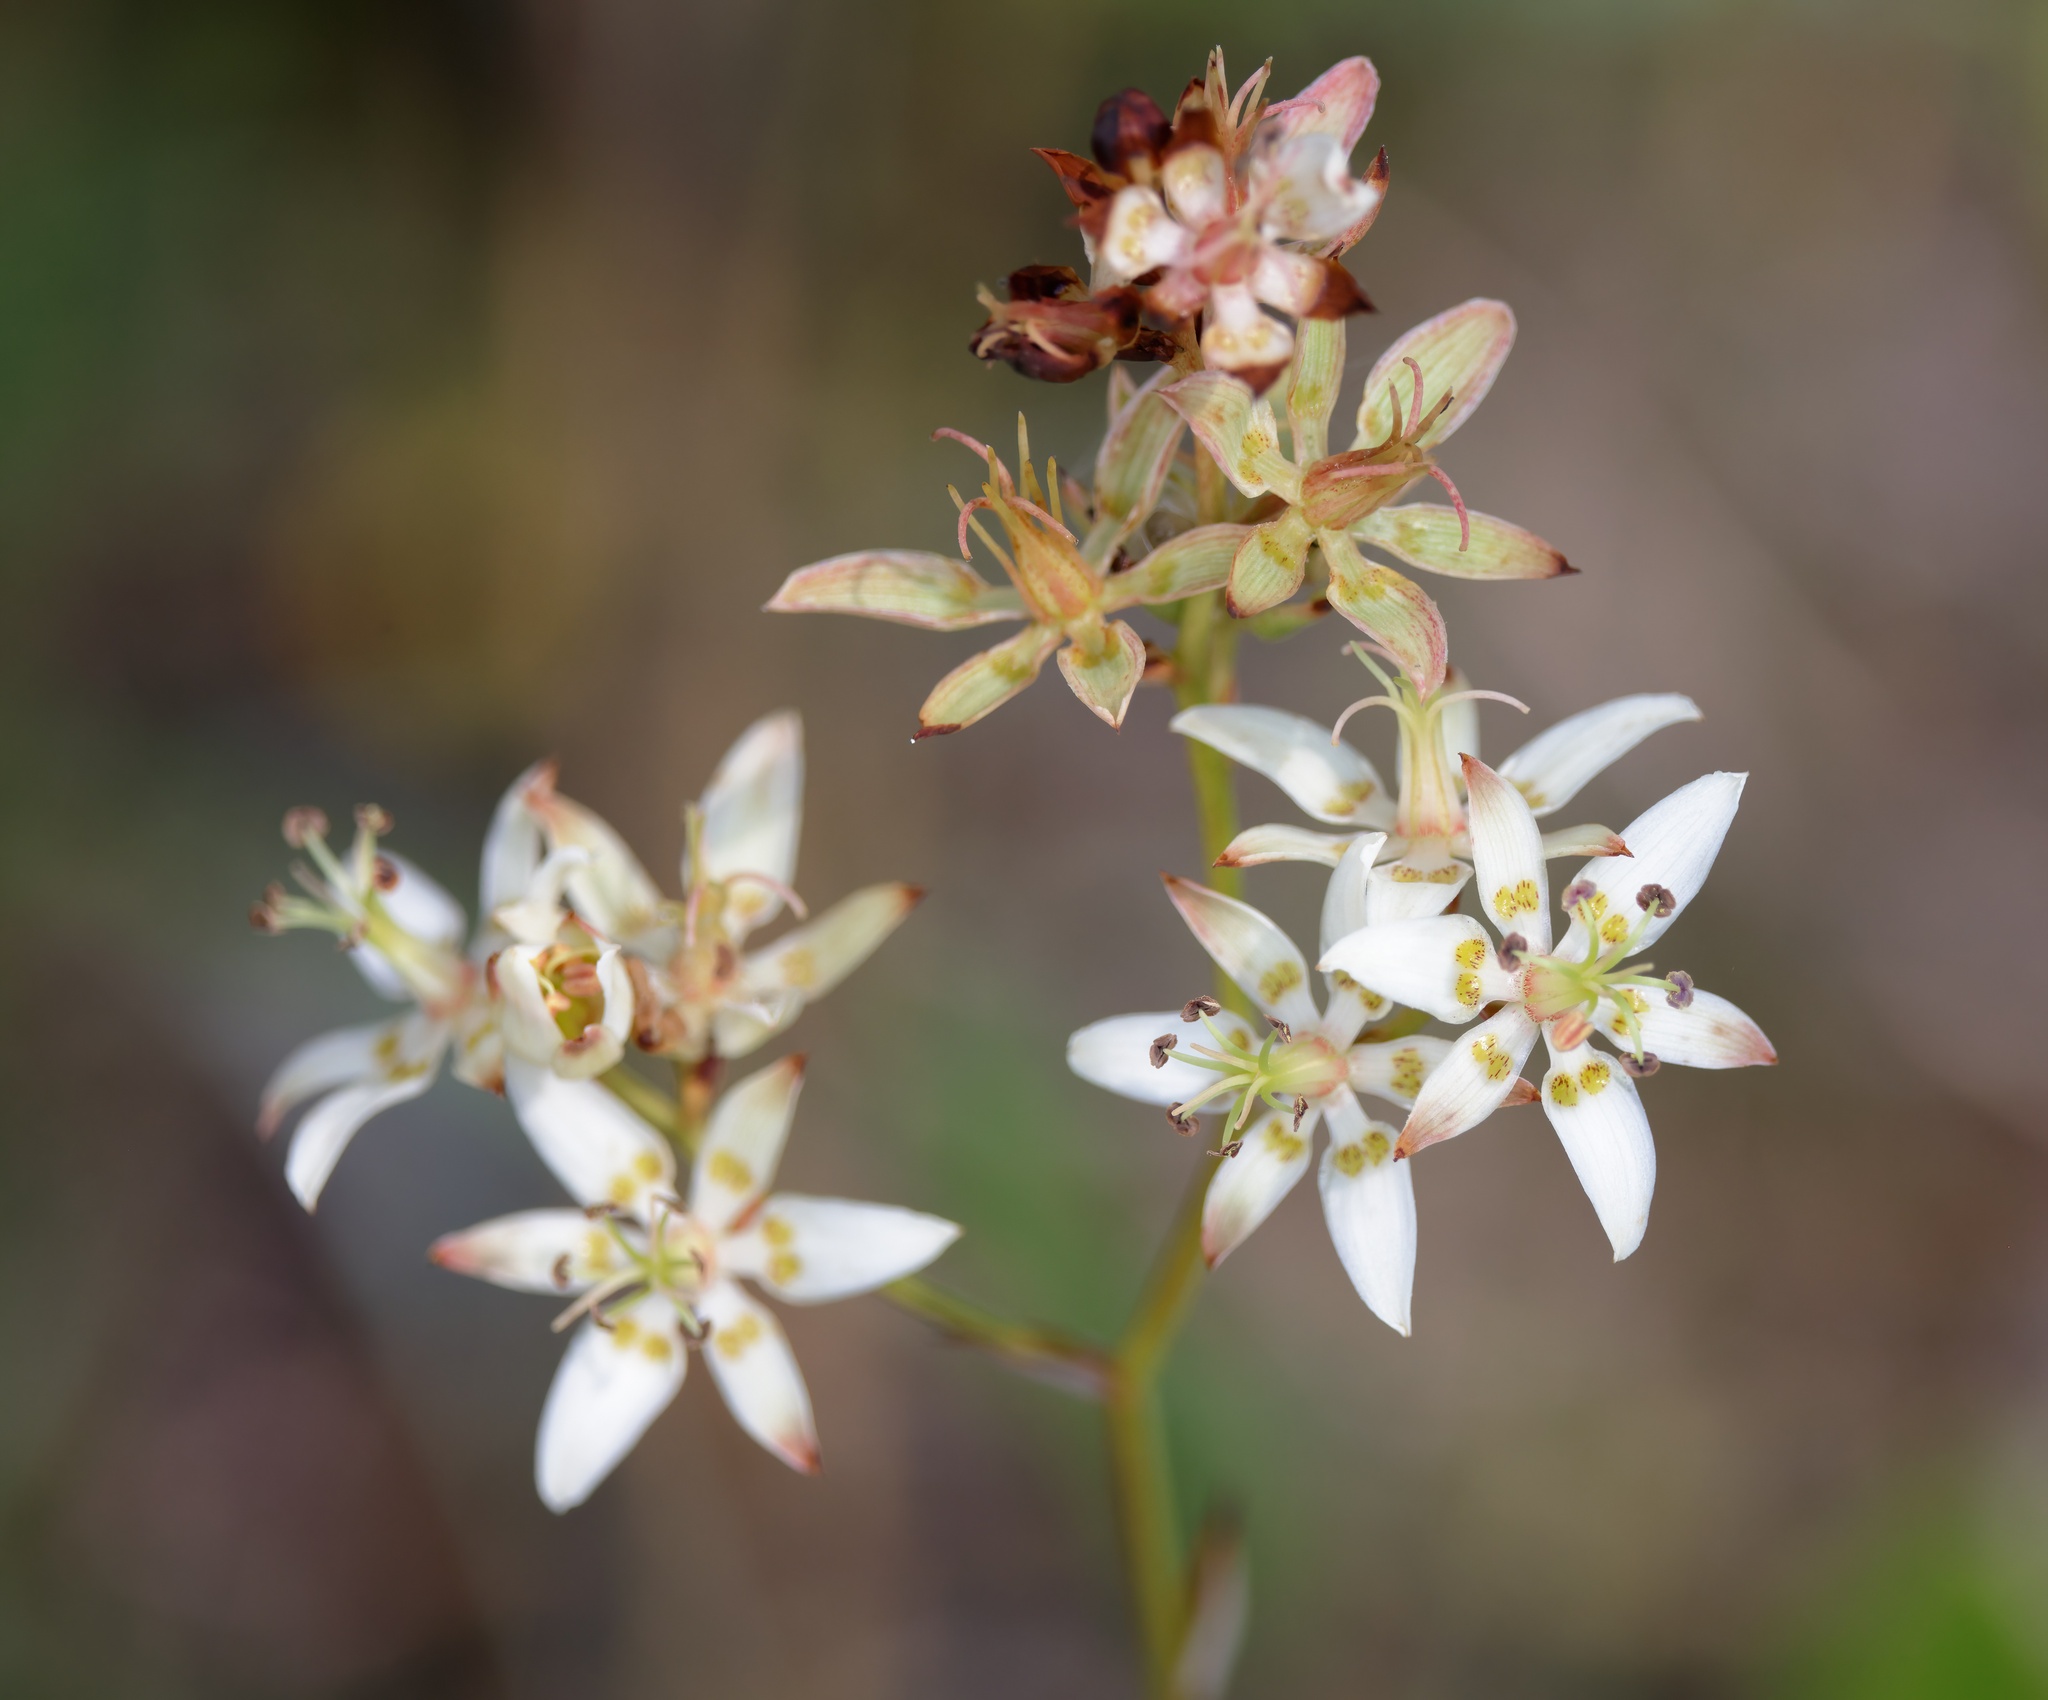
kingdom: Plantae
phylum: Tracheophyta
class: Liliopsida
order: Liliales
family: Melanthiaceae
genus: Zigadenus
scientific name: Zigadenus glaberrimus
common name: Sandbog death camas
